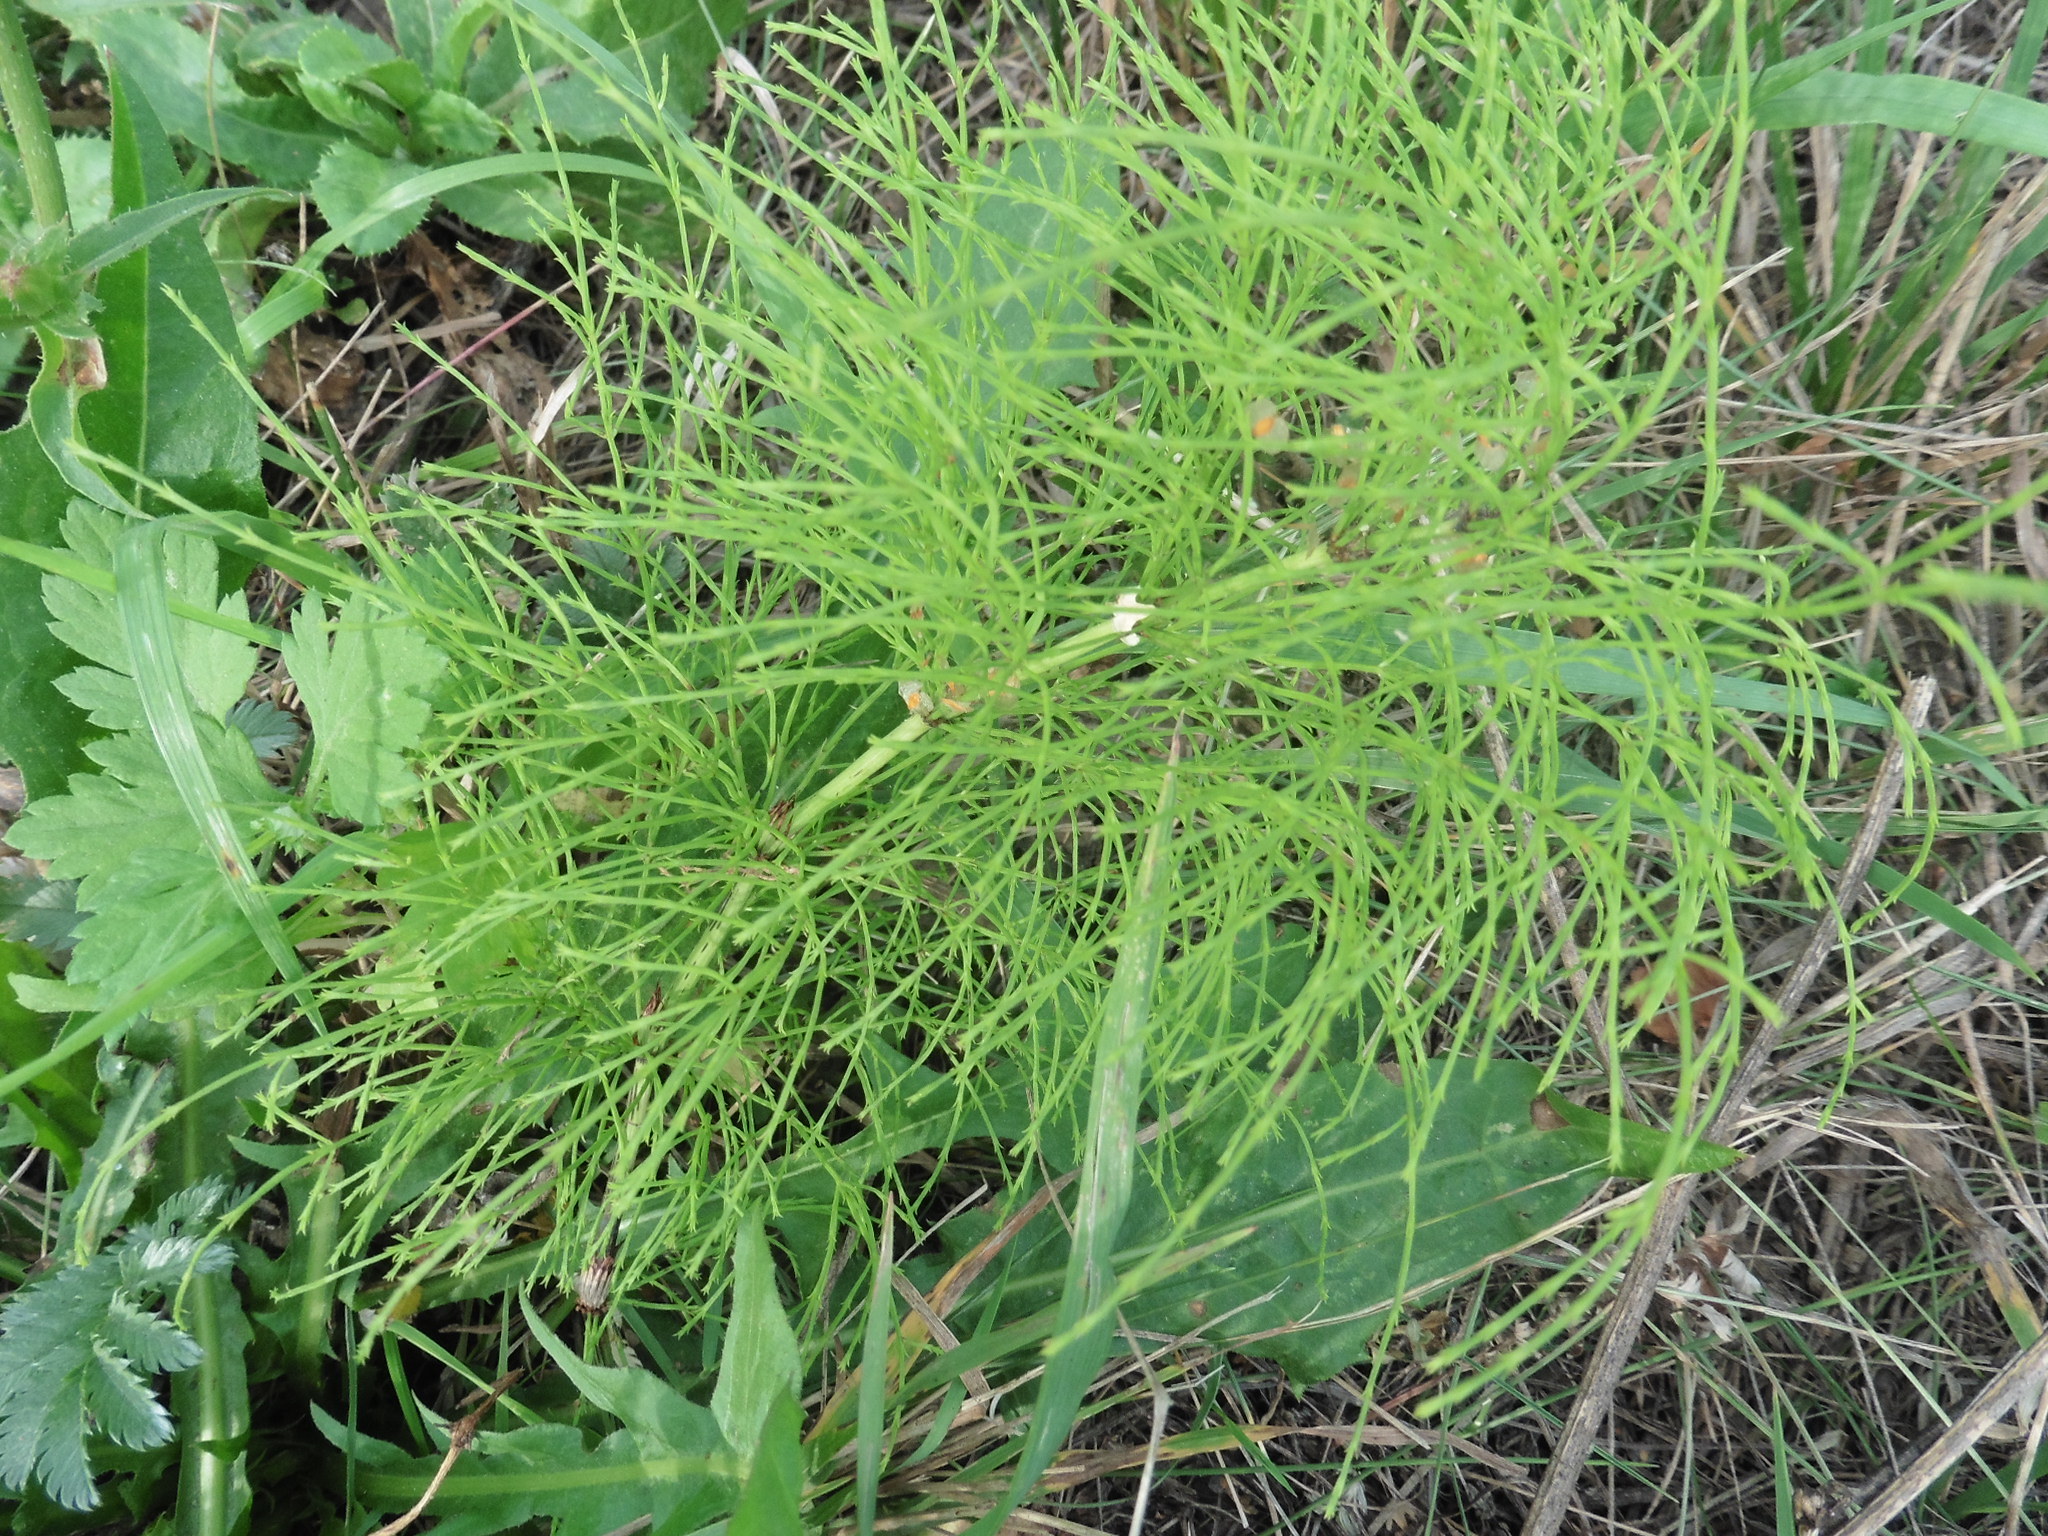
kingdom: Plantae
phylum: Tracheophyta
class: Polypodiopsida
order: Equisetales
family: Equisetaceae
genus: Equisetum
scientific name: Equisetum sylvaticum
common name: Wood horsetail
